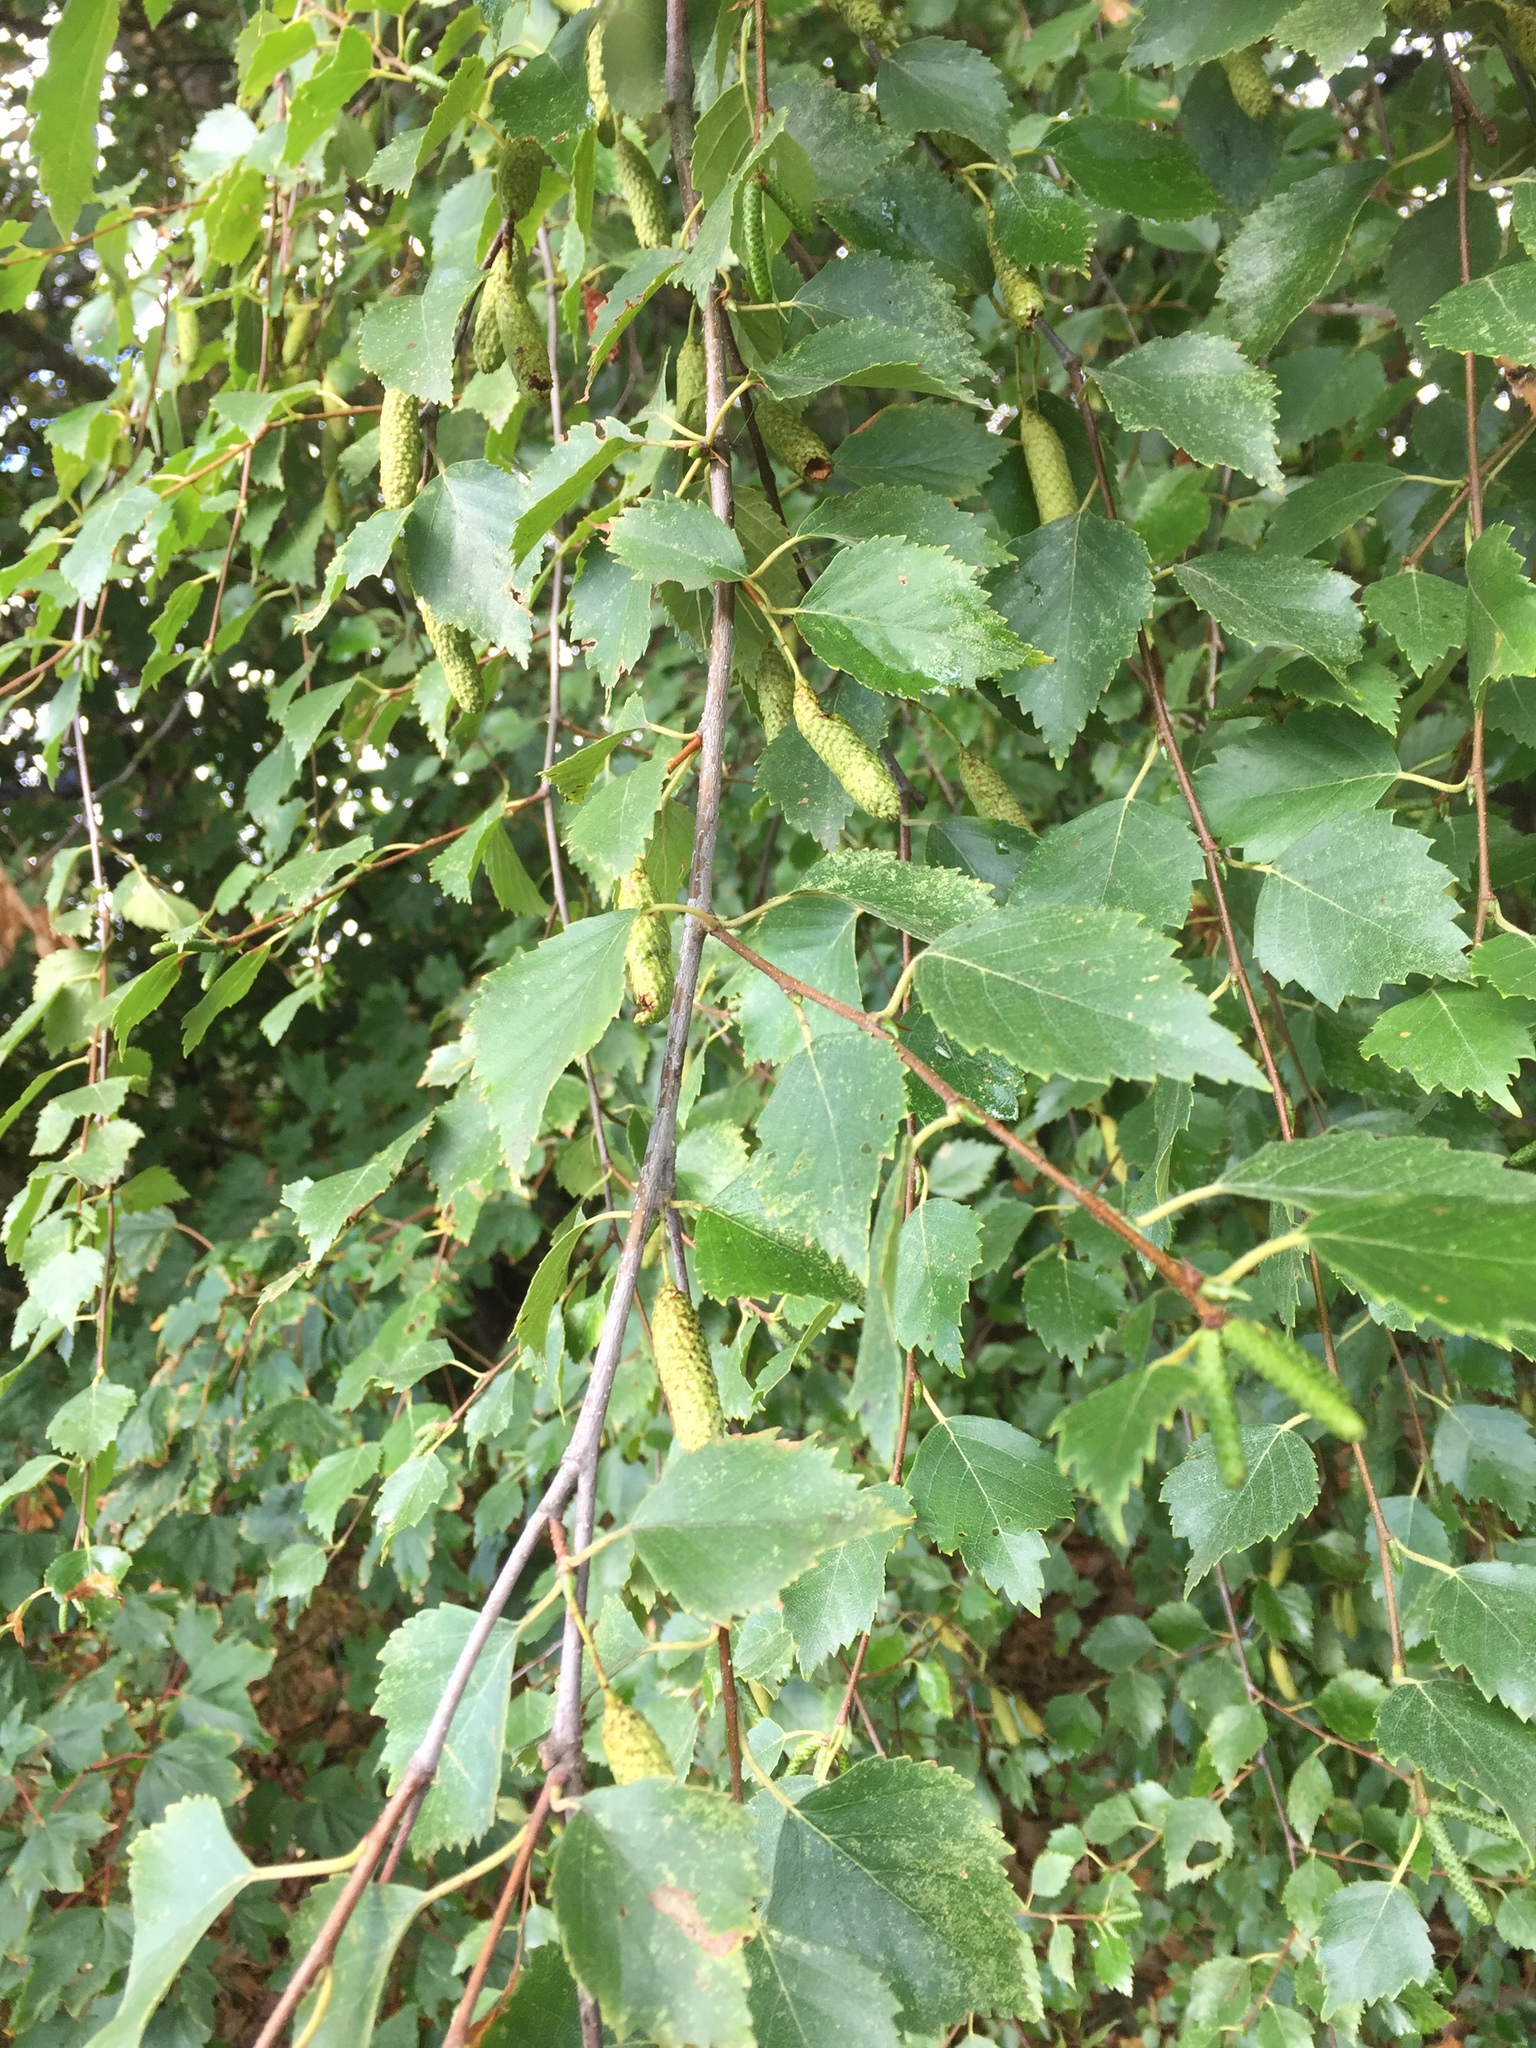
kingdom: Plantae
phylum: Tracheophyta
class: Magnoliopsida
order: Fagales
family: Betulaceae
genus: Betula
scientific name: Betula pendula
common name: Silver birch
